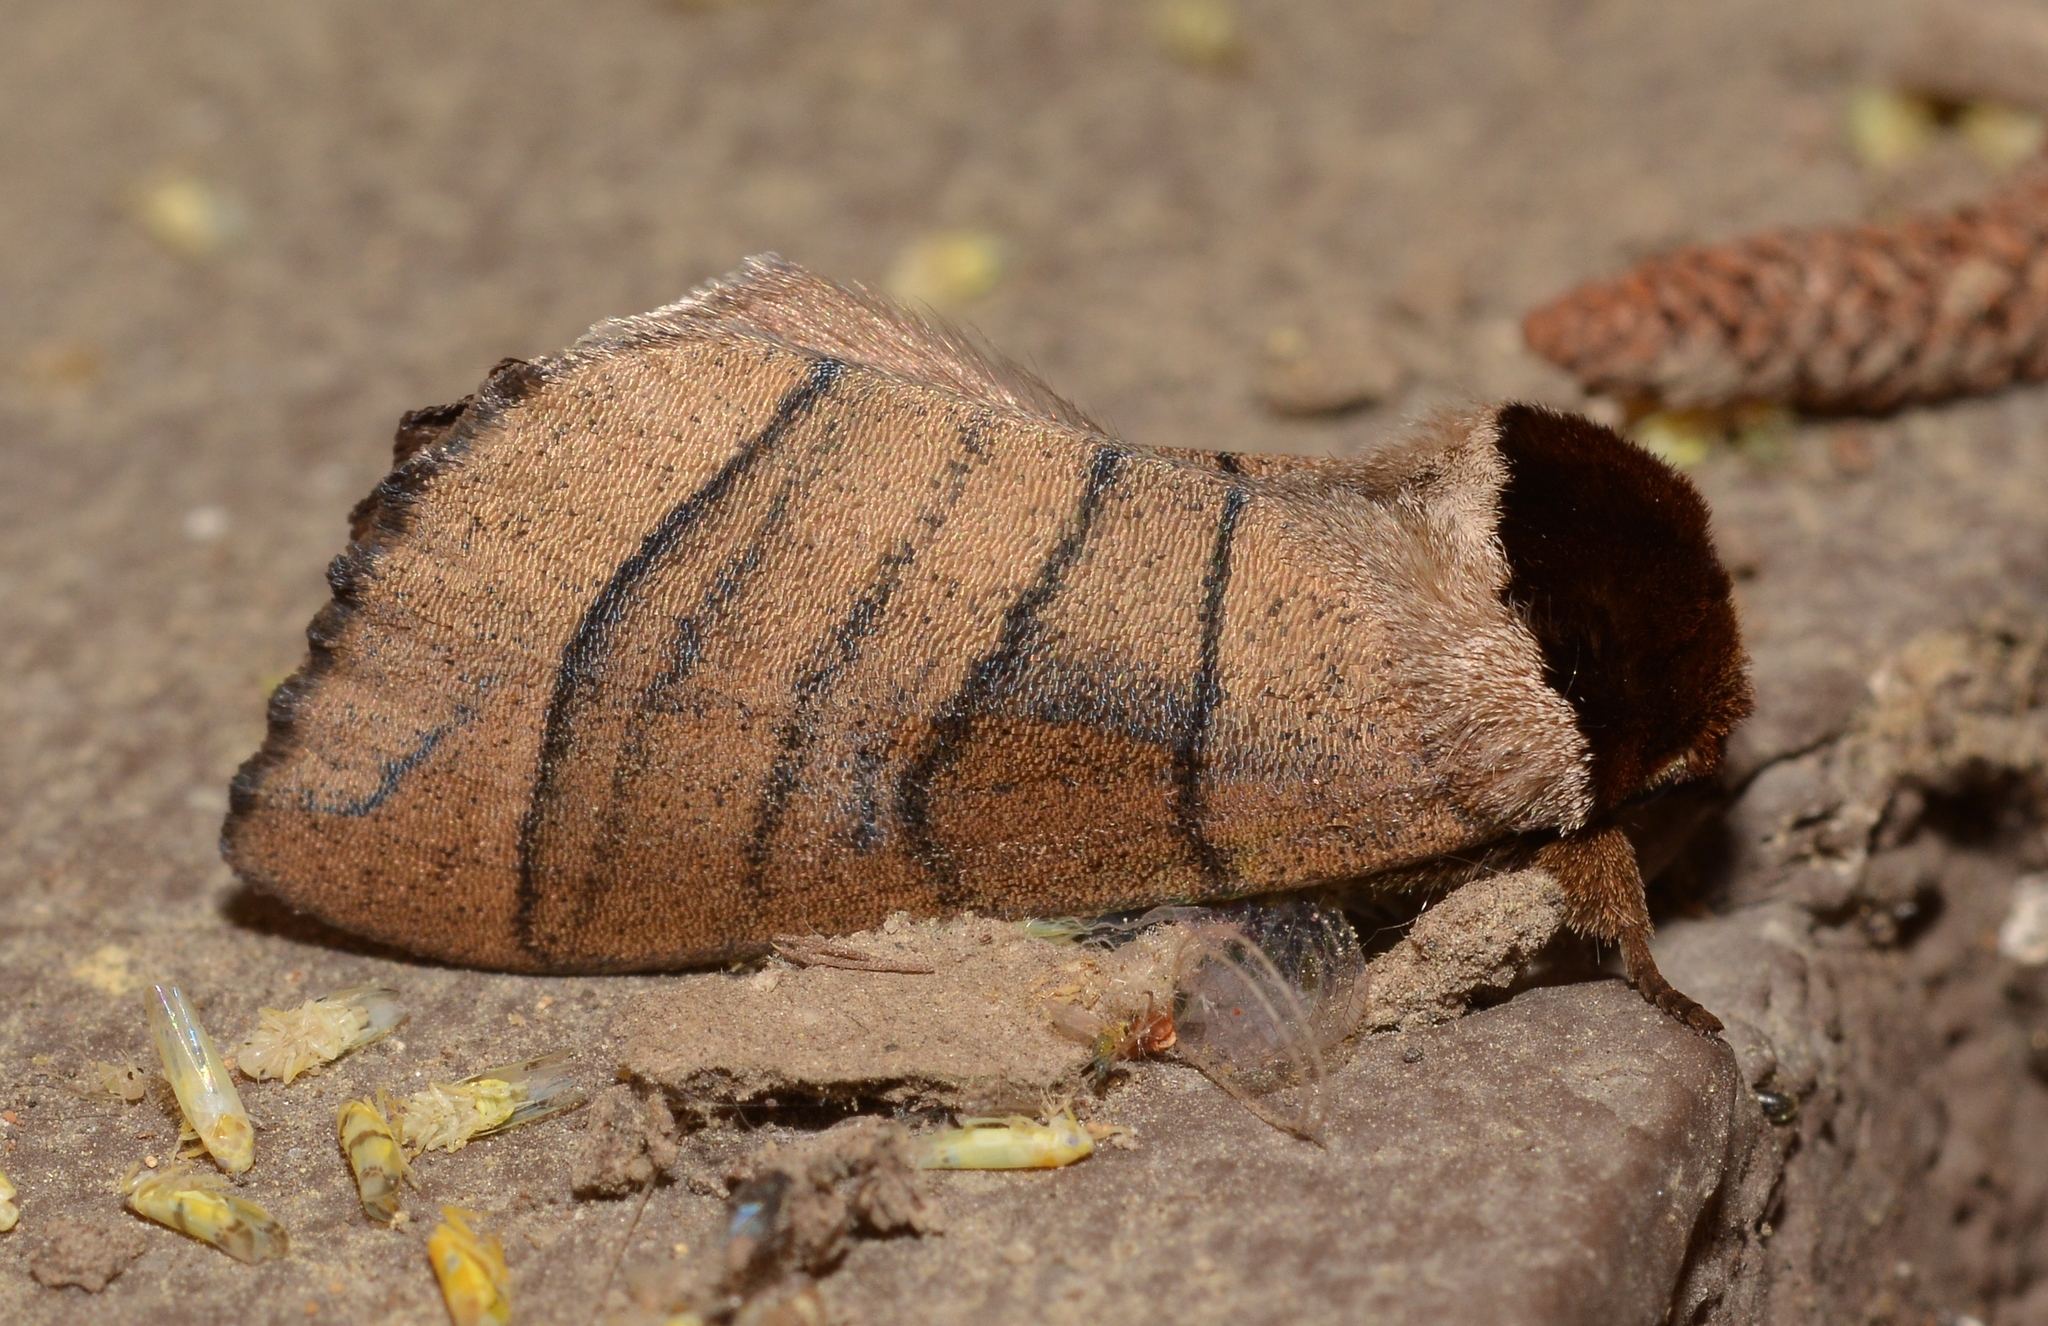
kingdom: Animalia
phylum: Arthropoda
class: Insecta
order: Lepidoptera
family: Notodontidae
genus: Datana
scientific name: Datana angusii
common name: Angus's datana
